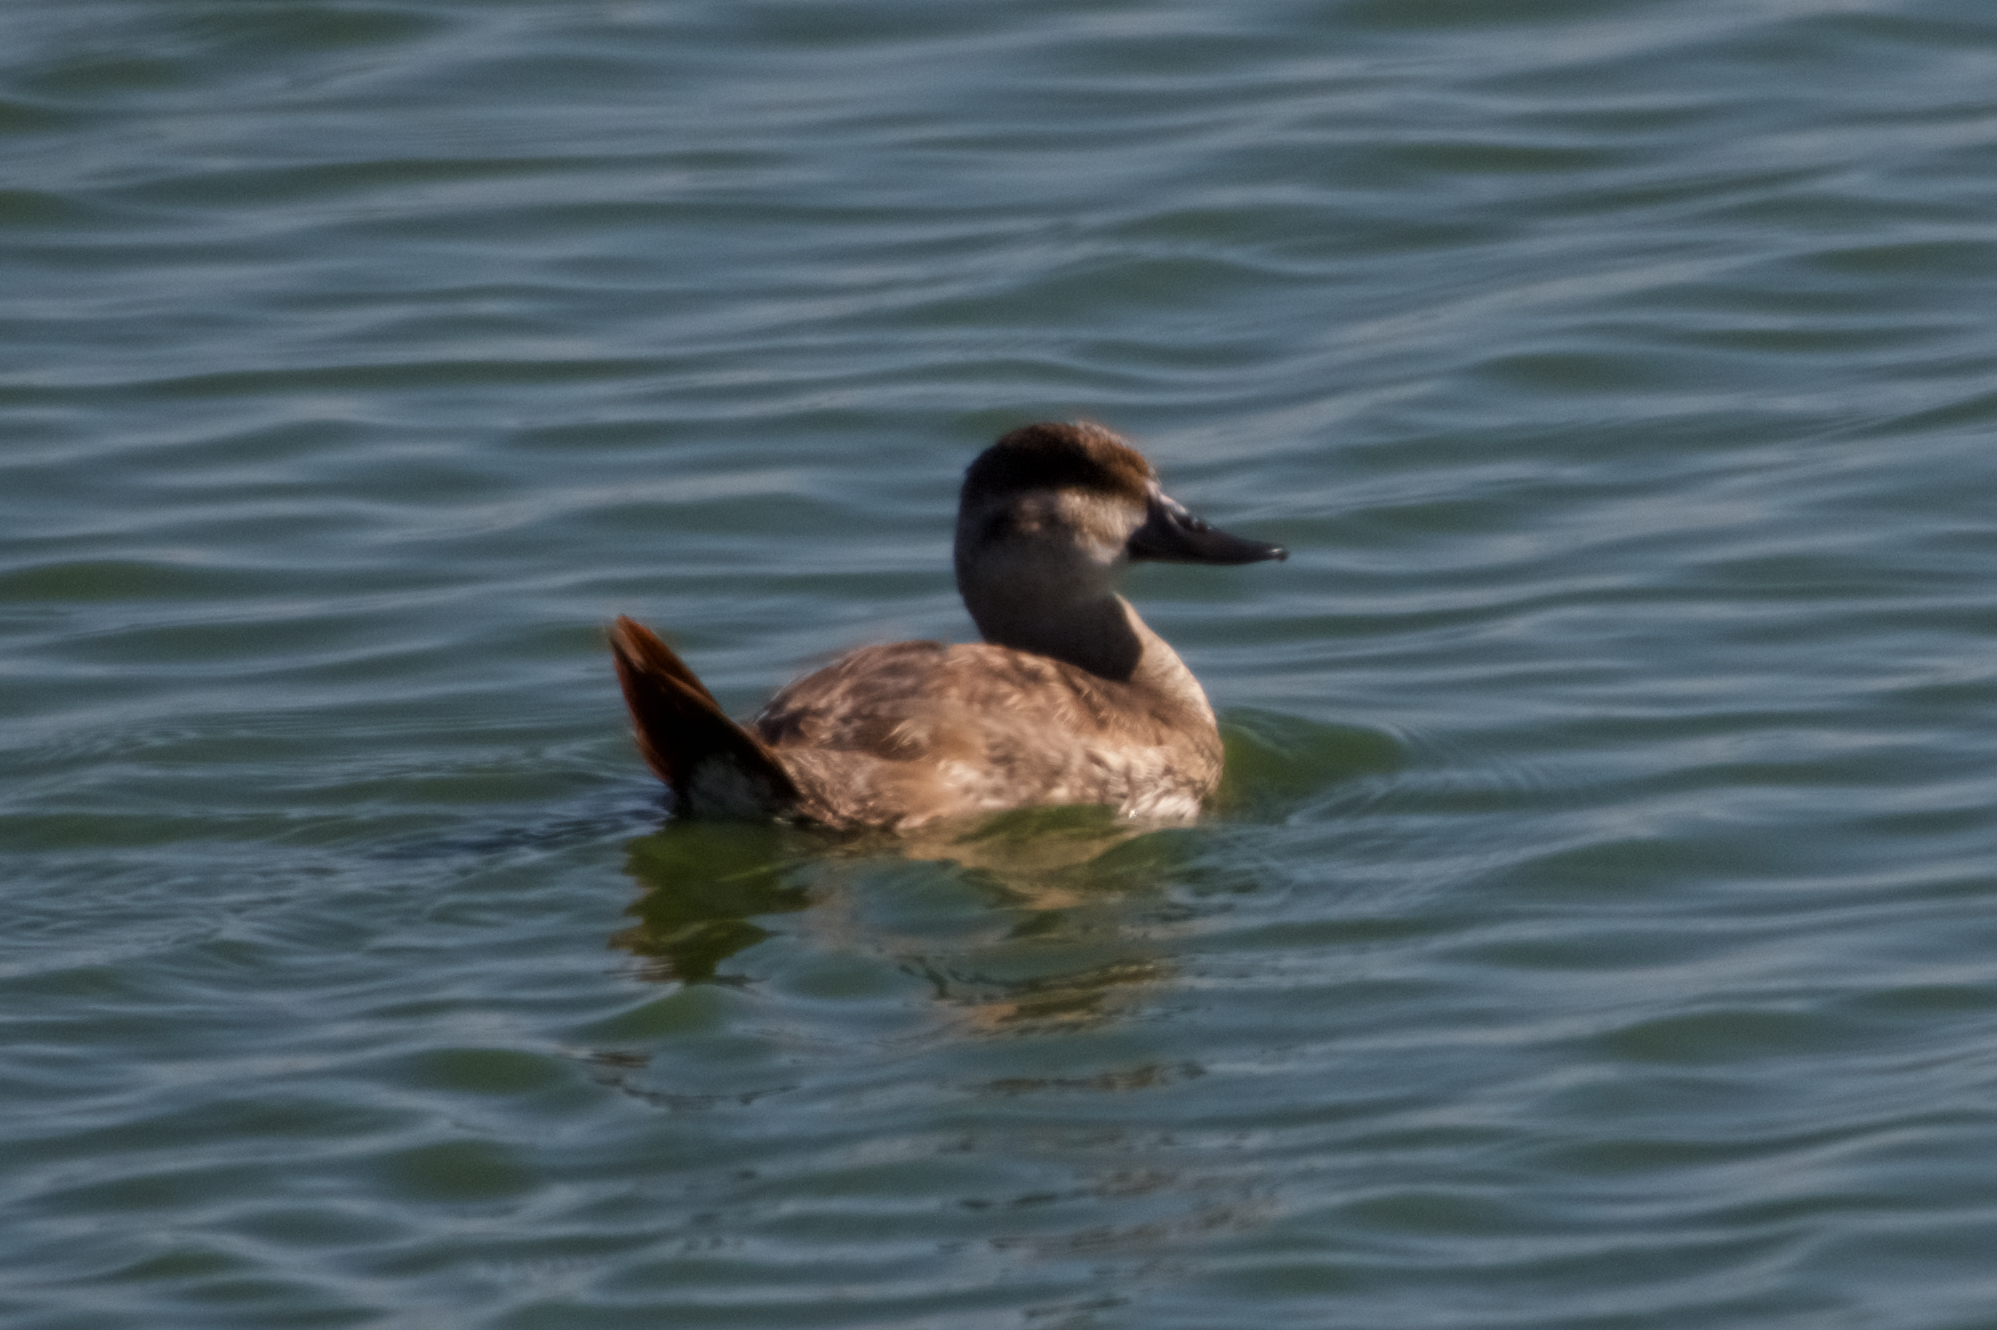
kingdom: Animalia
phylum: Chordata
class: Aves
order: Anseriformes
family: Anatidae
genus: Oxyura
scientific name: Oxyura jamaicensis
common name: Ruddy duck
